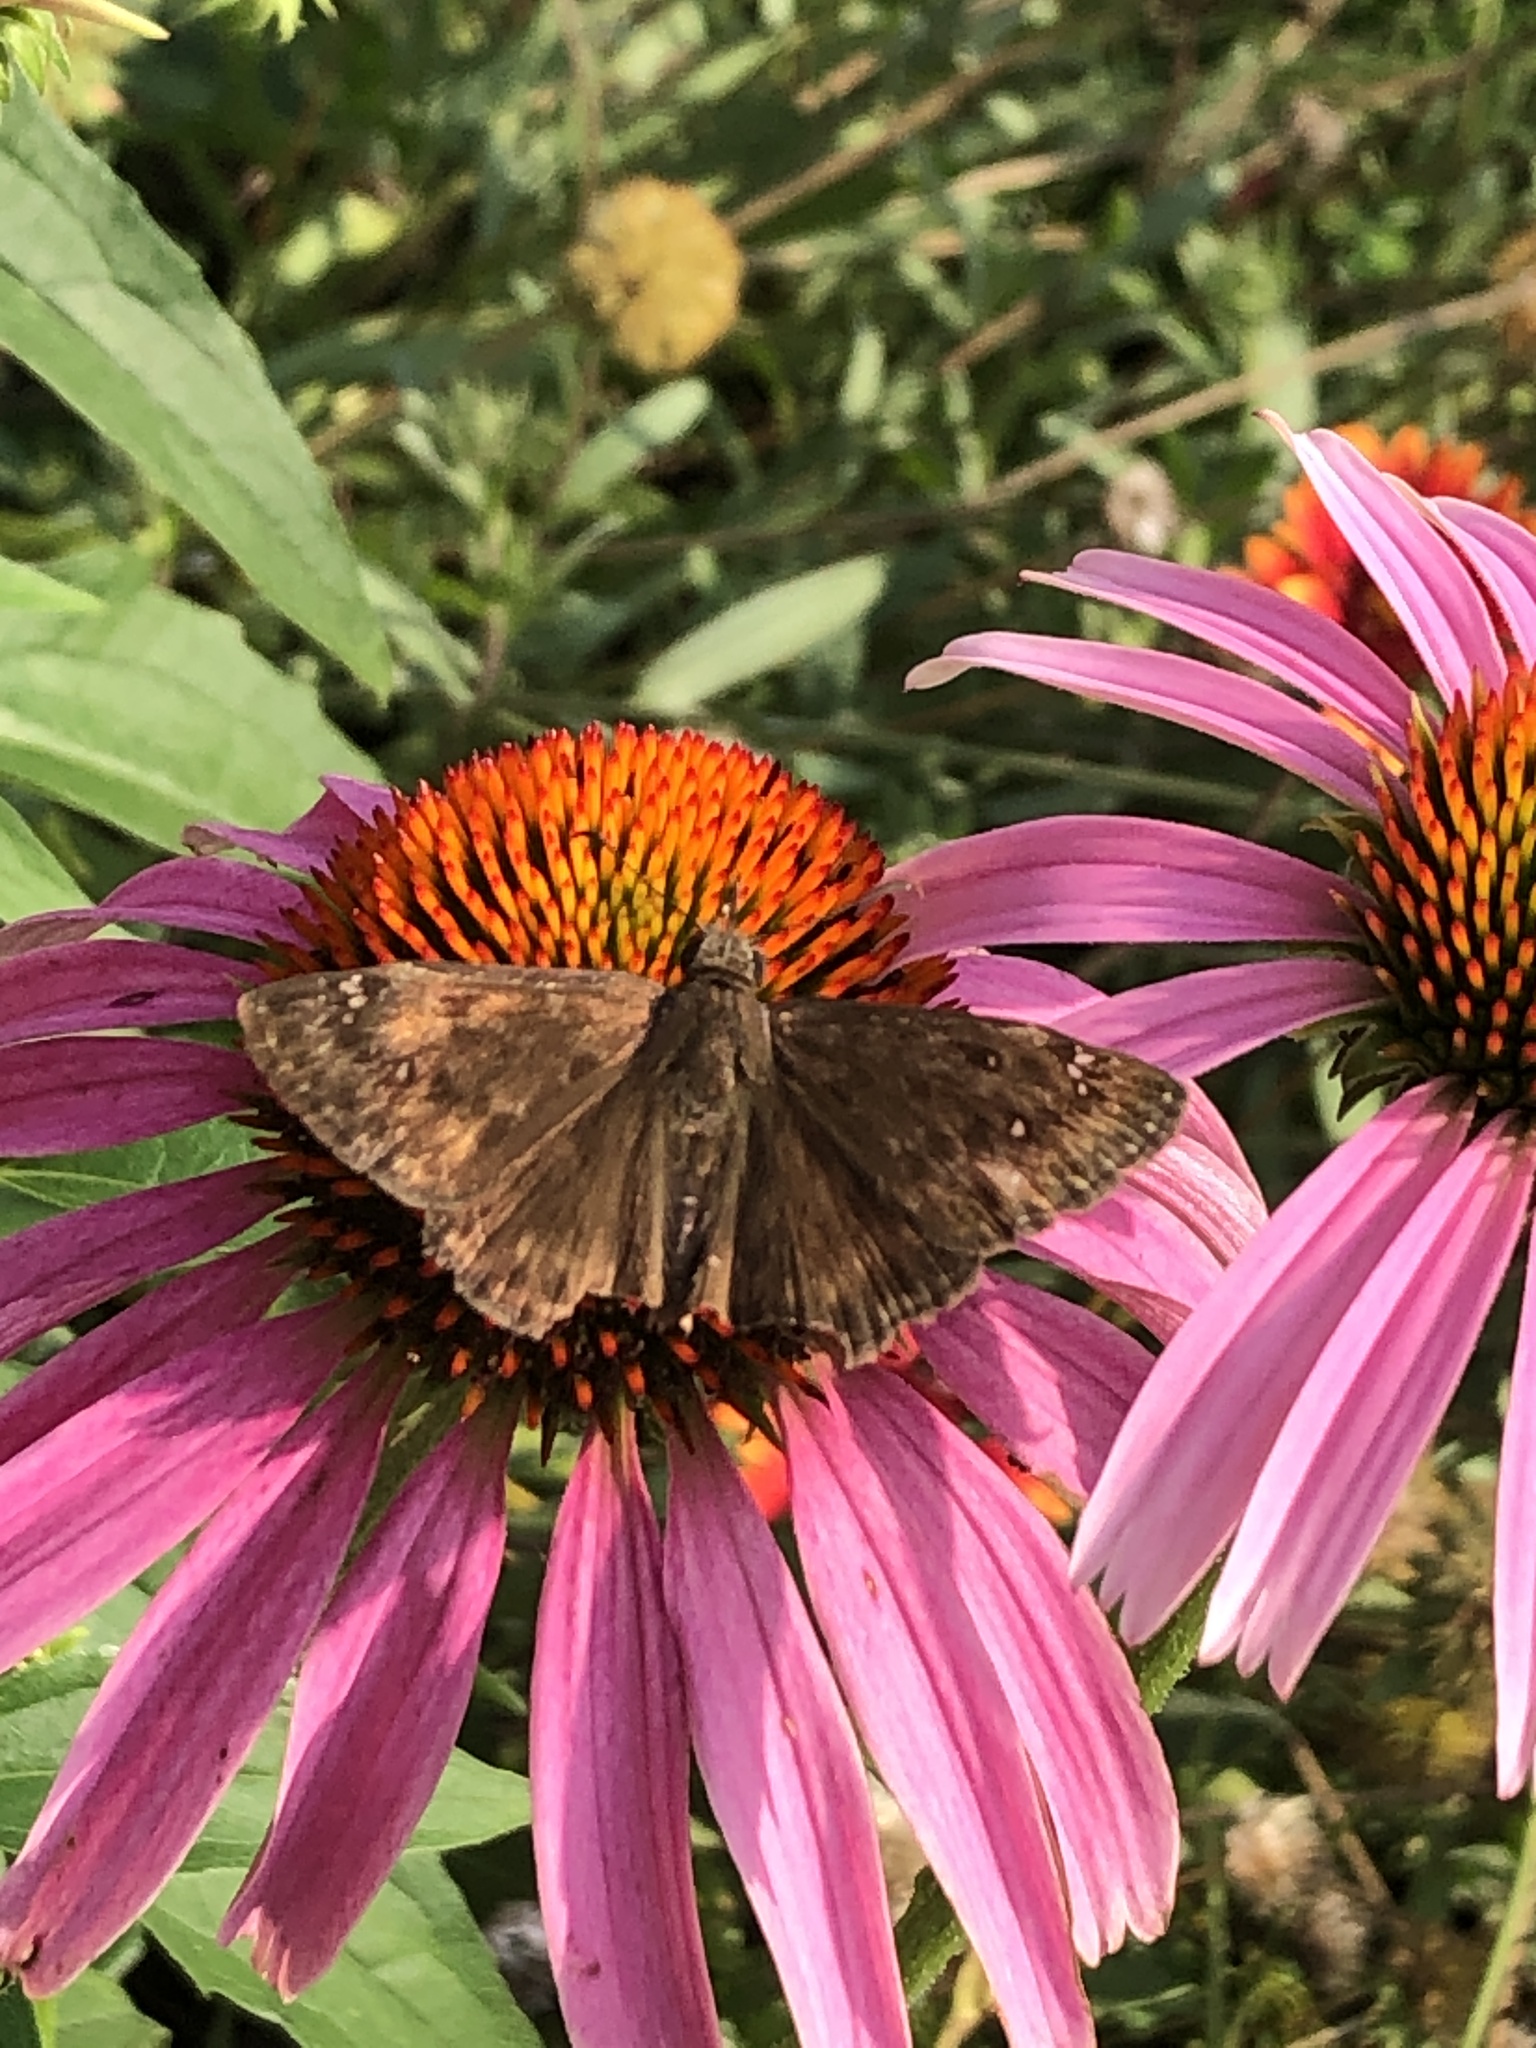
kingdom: Animalia
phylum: Arthropoda
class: Insecta
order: Lepidoptera
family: Hesperiidae
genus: Erynnis
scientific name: Erynnis horatius
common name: Horace's duskywing
